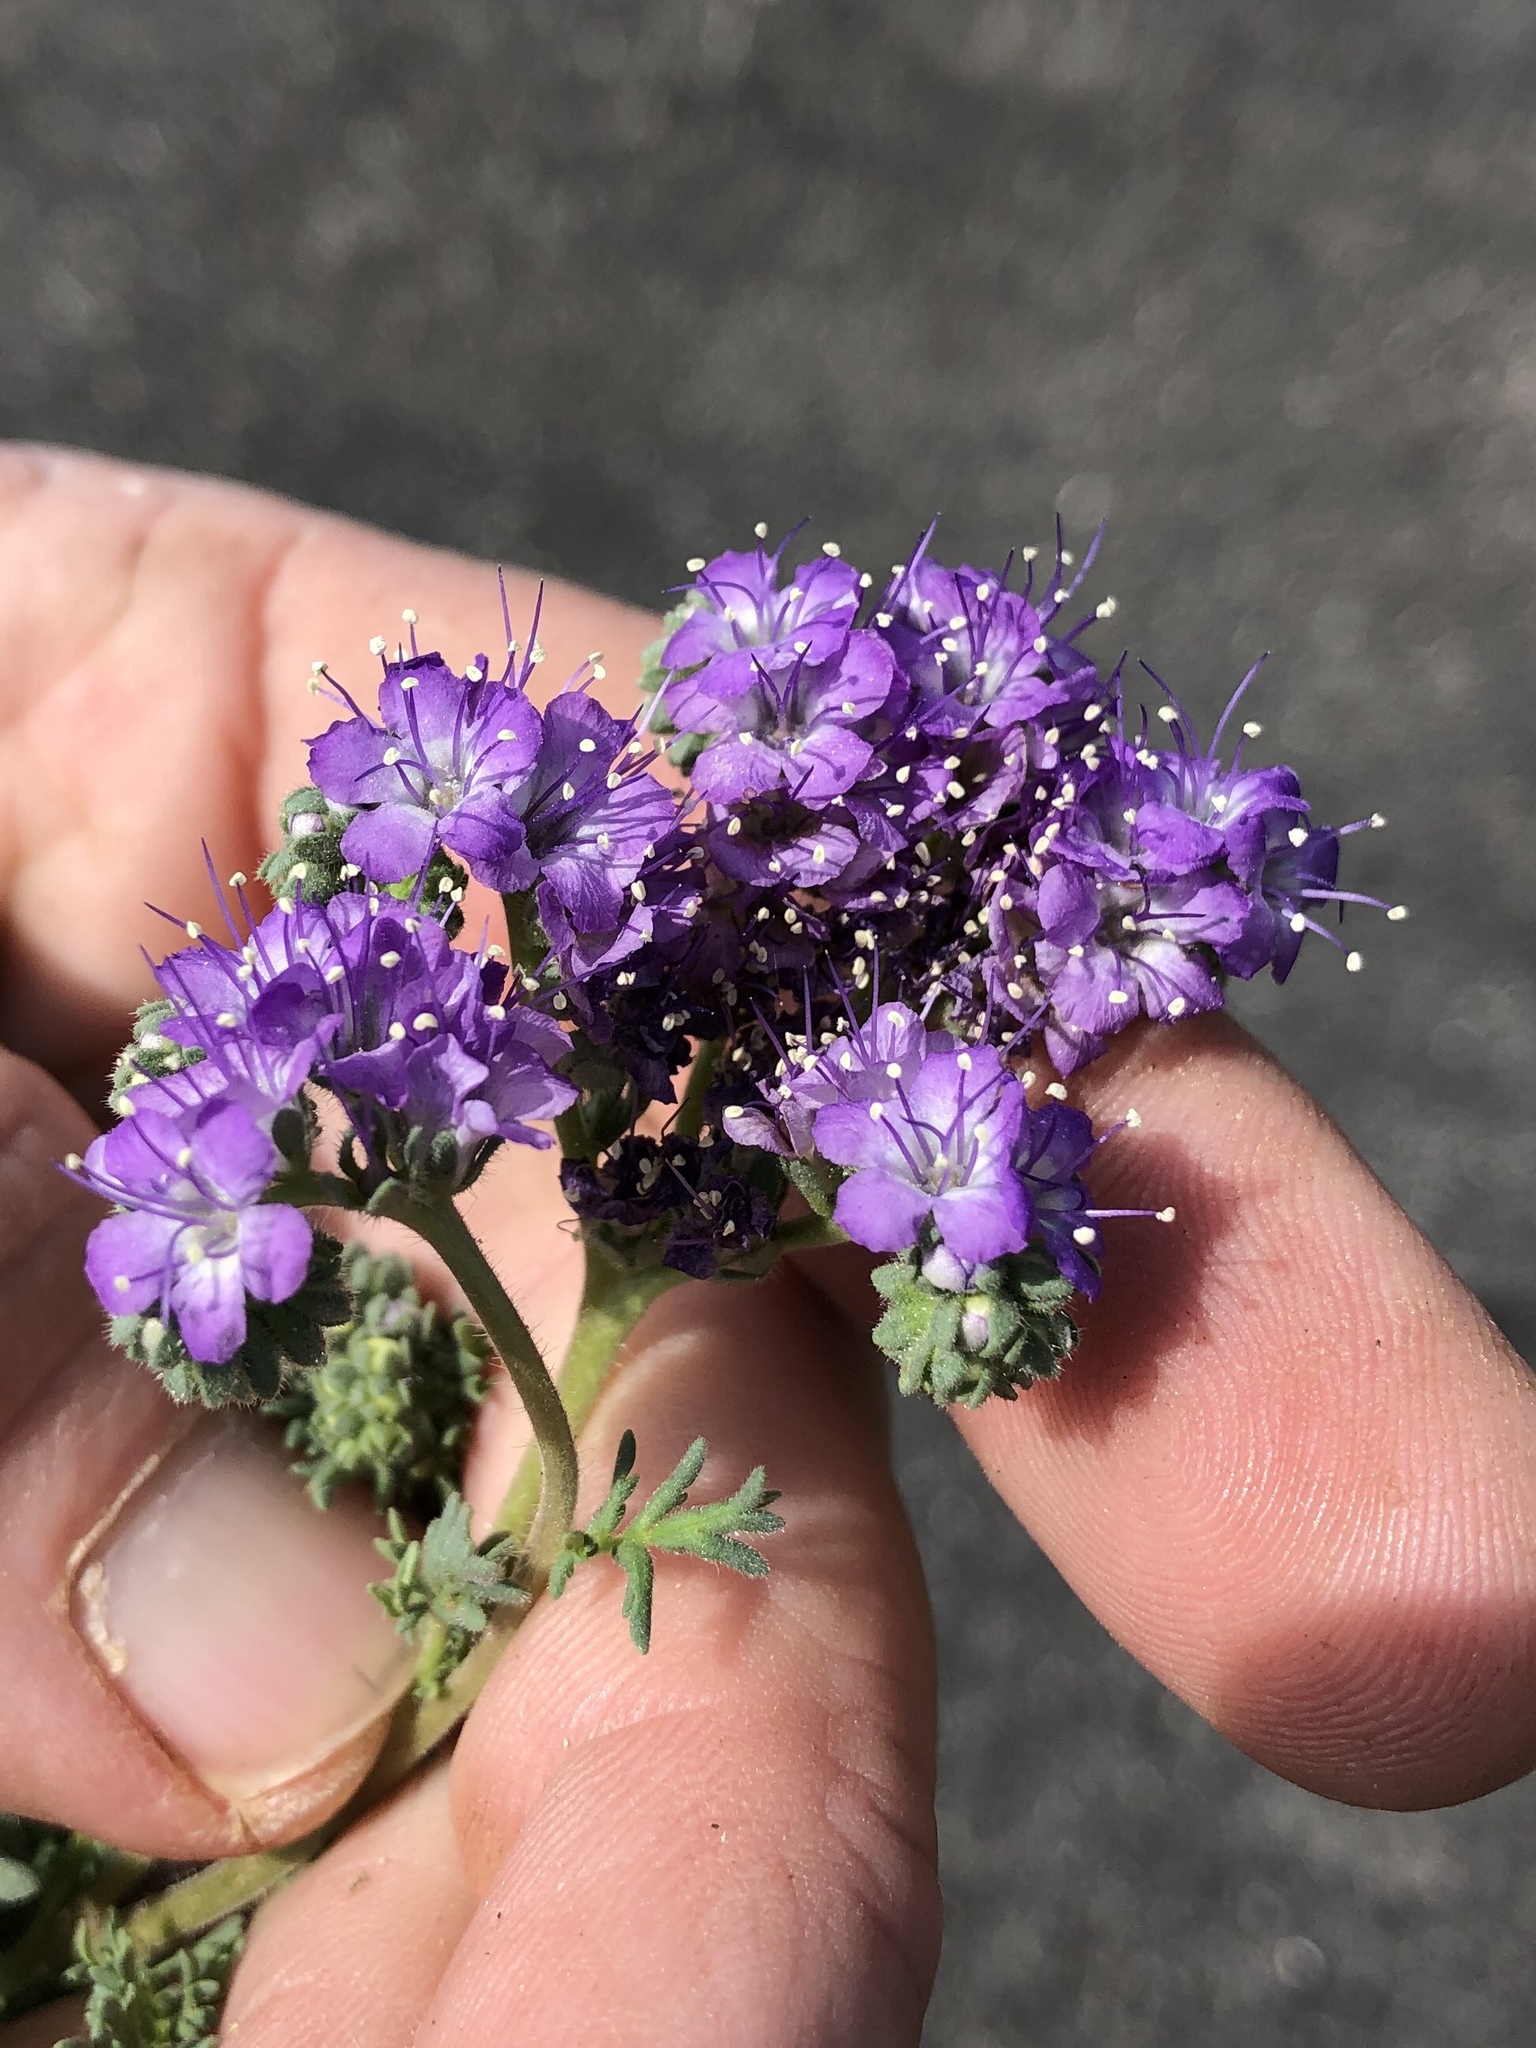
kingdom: Plantae
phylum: Tracheophyta
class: Magnoliopsida
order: Boraginales
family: Hydrophyllaceae
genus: Phacelia
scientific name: Phacelia popei
